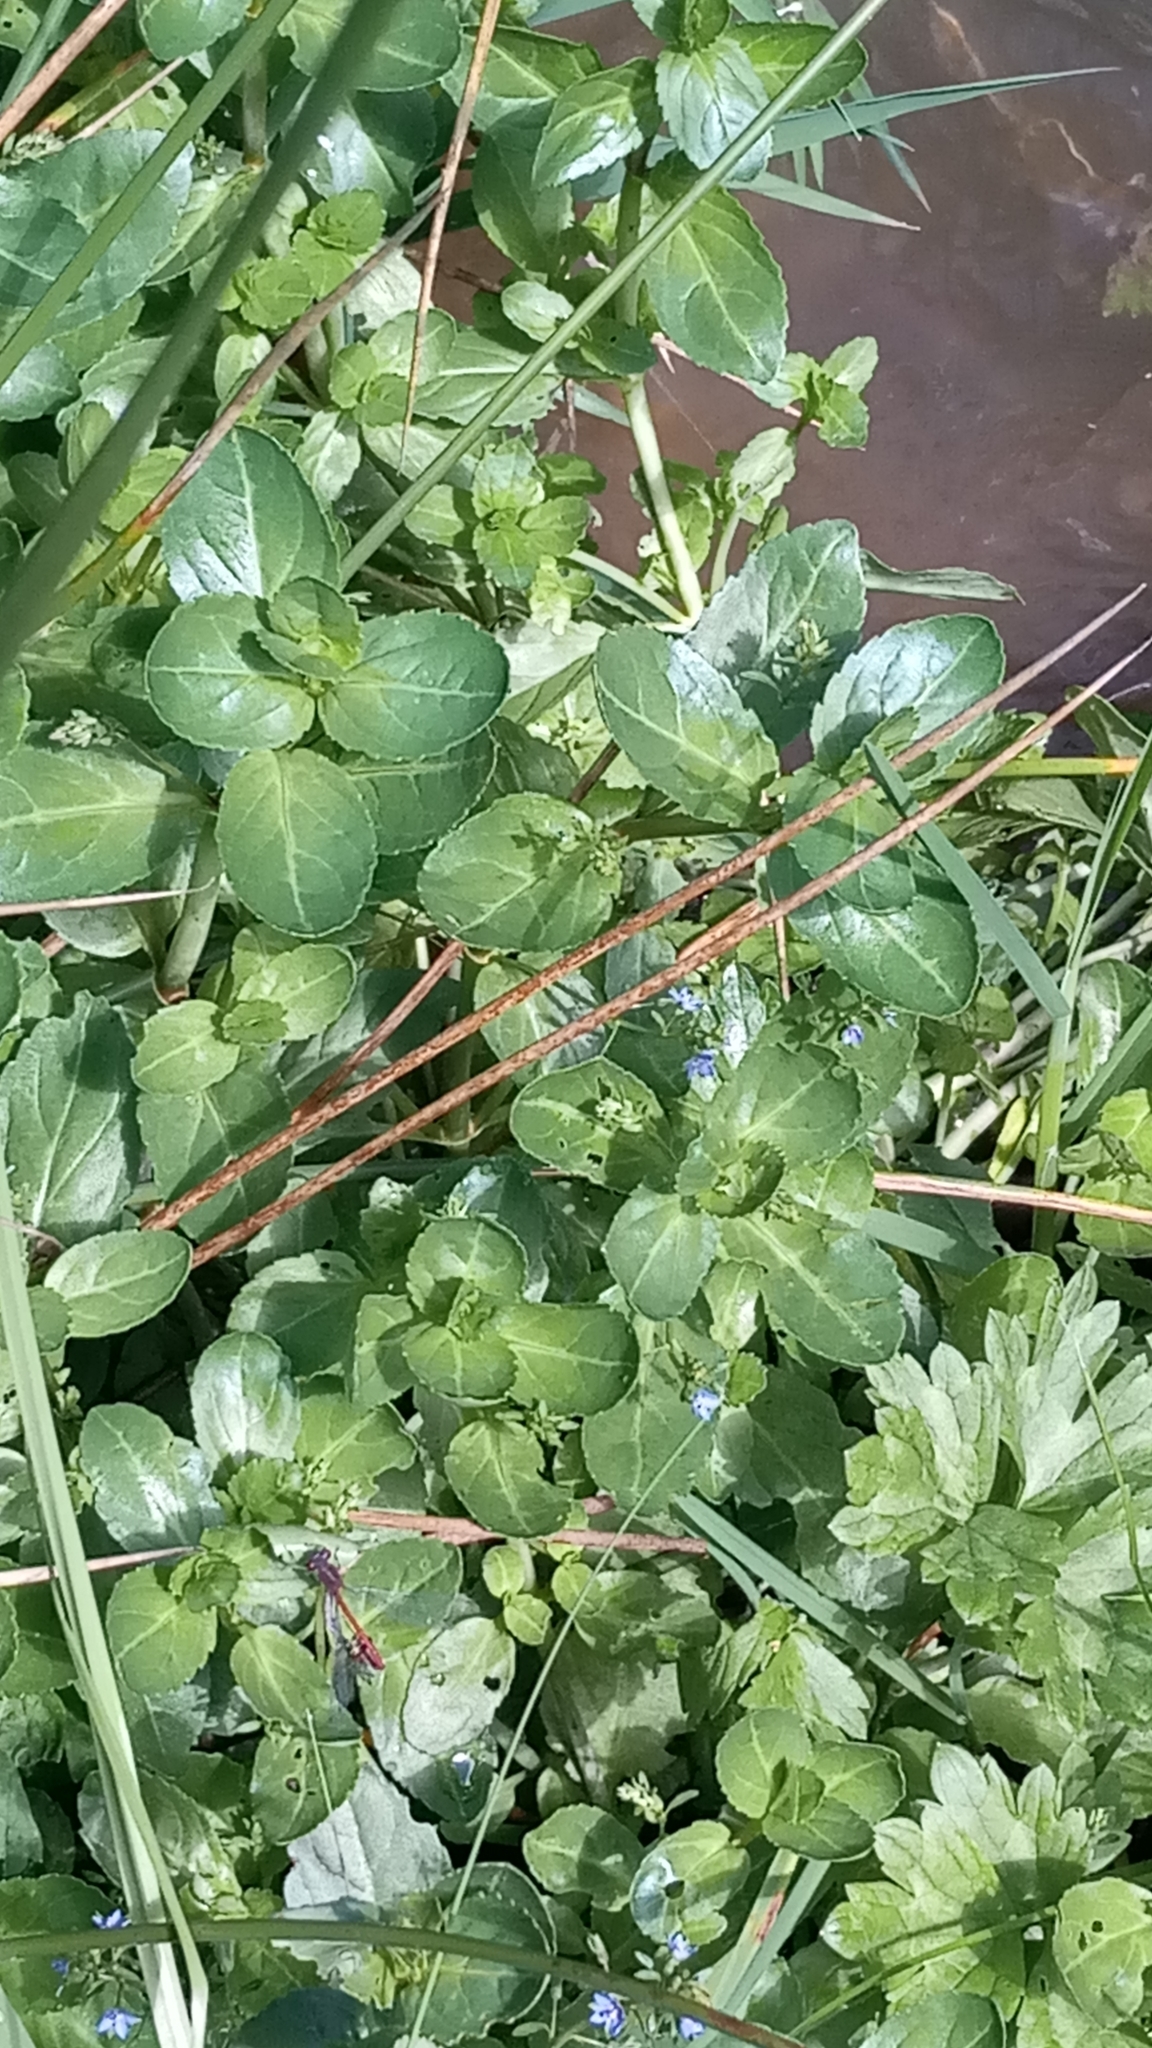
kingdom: Plantae
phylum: Tracheophyta
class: Magnoliopsida
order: Lamiales
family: Plantaginaceae
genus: Veronica
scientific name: Veronica beccabunga
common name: Brooklime
